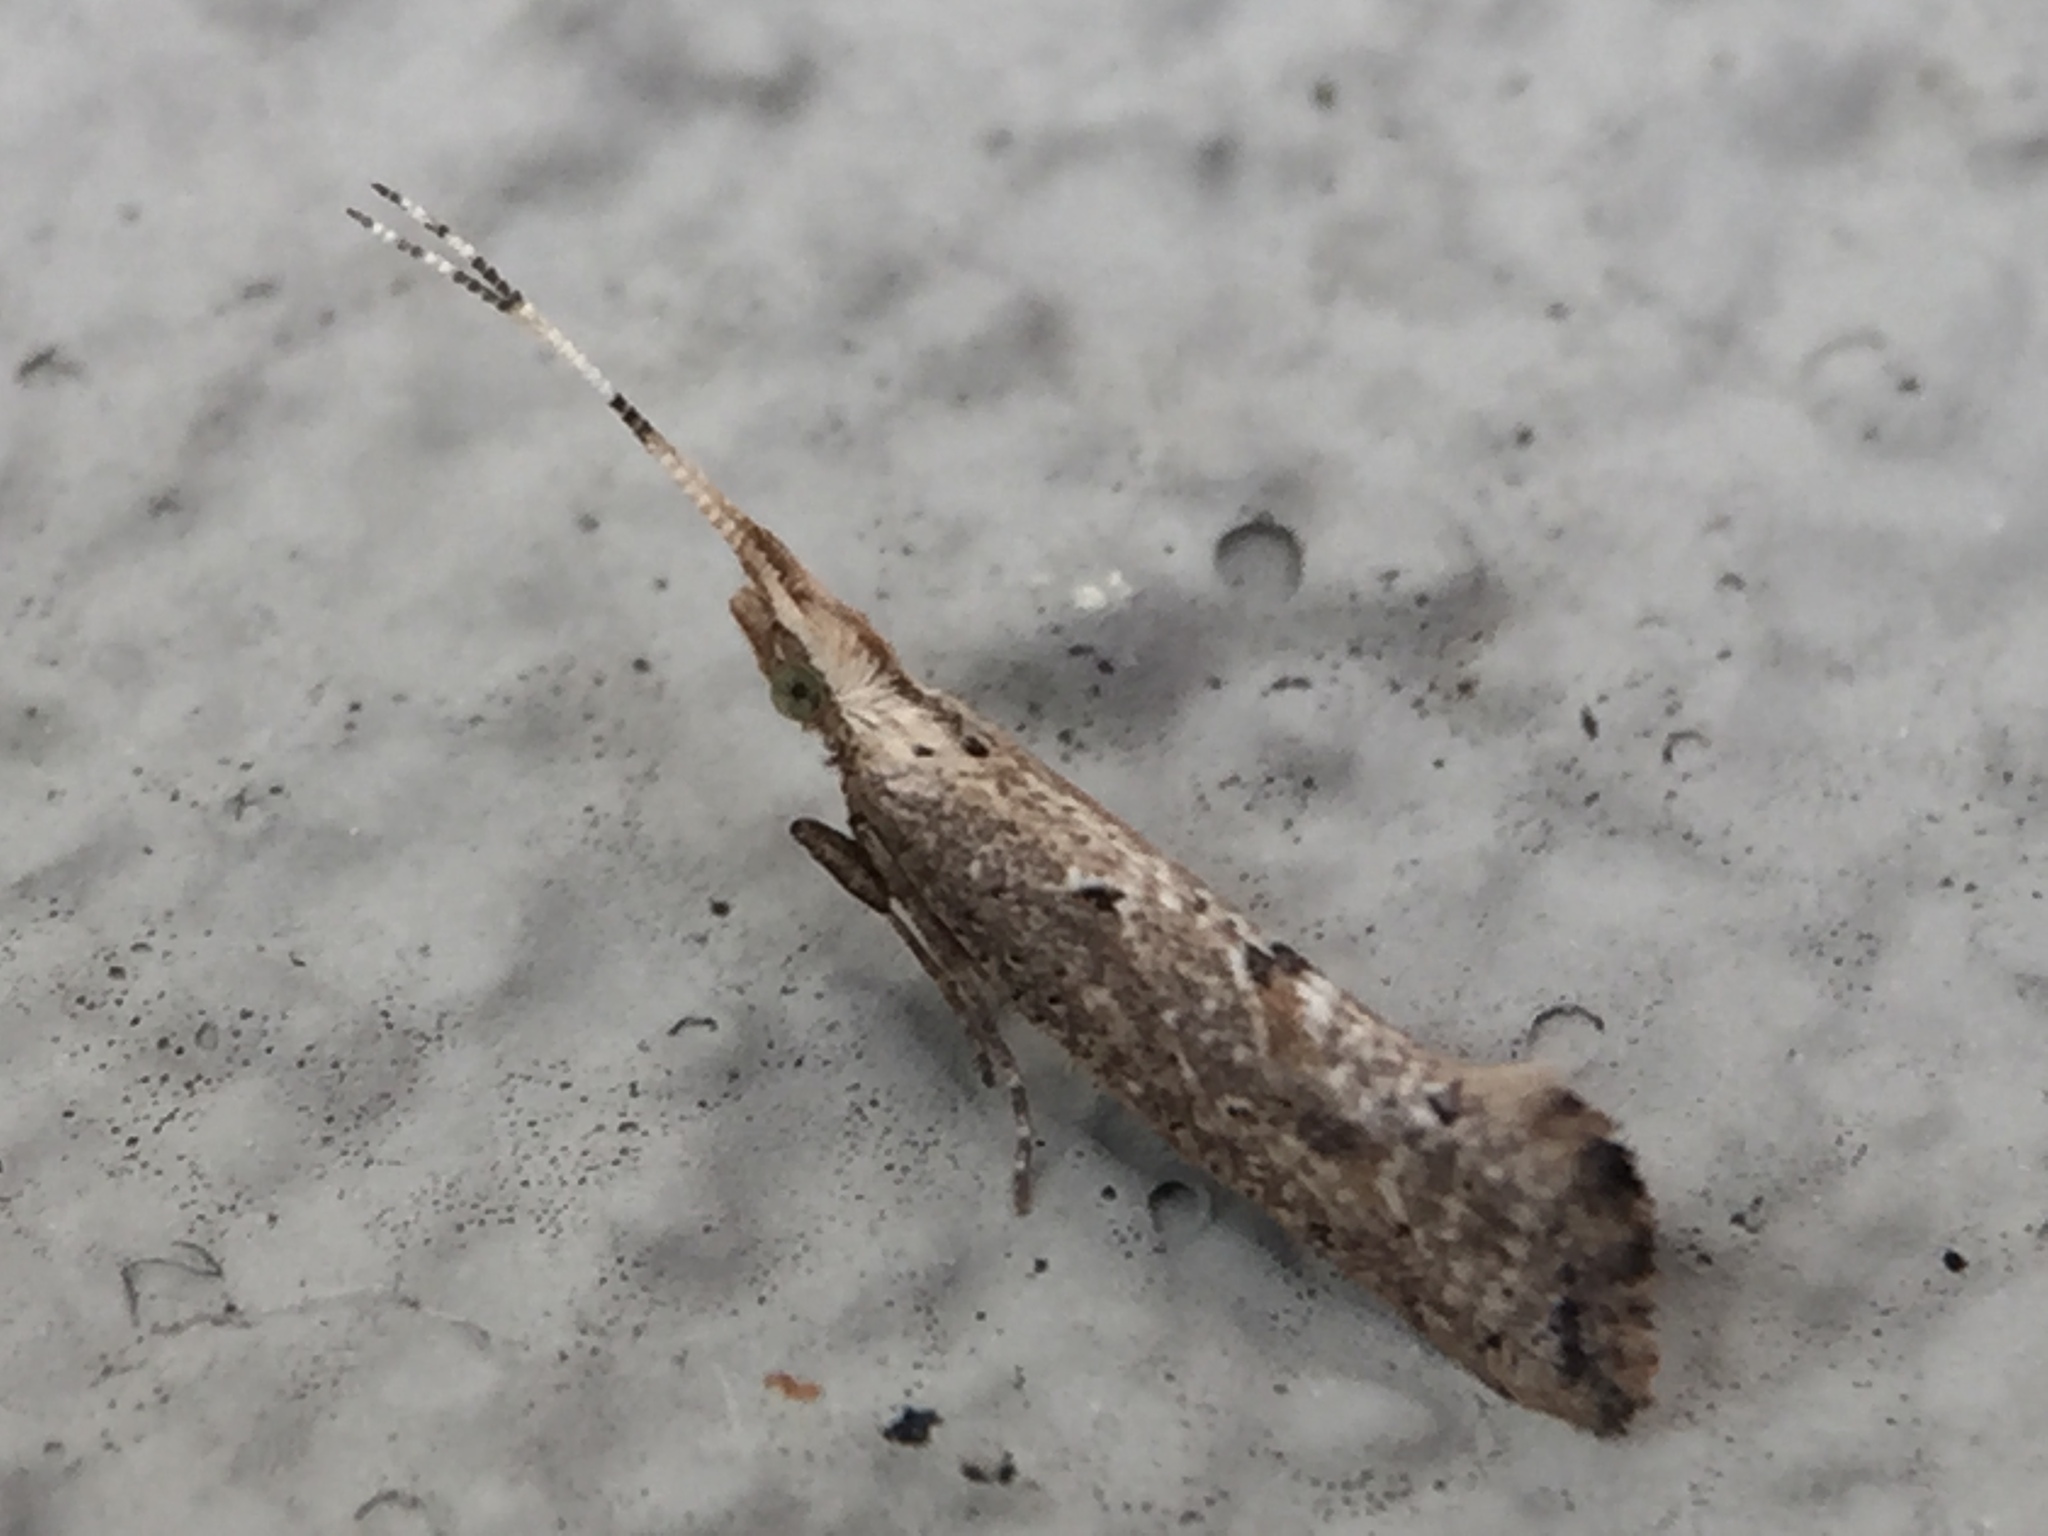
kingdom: Animalia
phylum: Arthropoda
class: Insecta
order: Lepidoptera
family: Plutellidae
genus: Leuroperna
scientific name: Leuroperna sera
